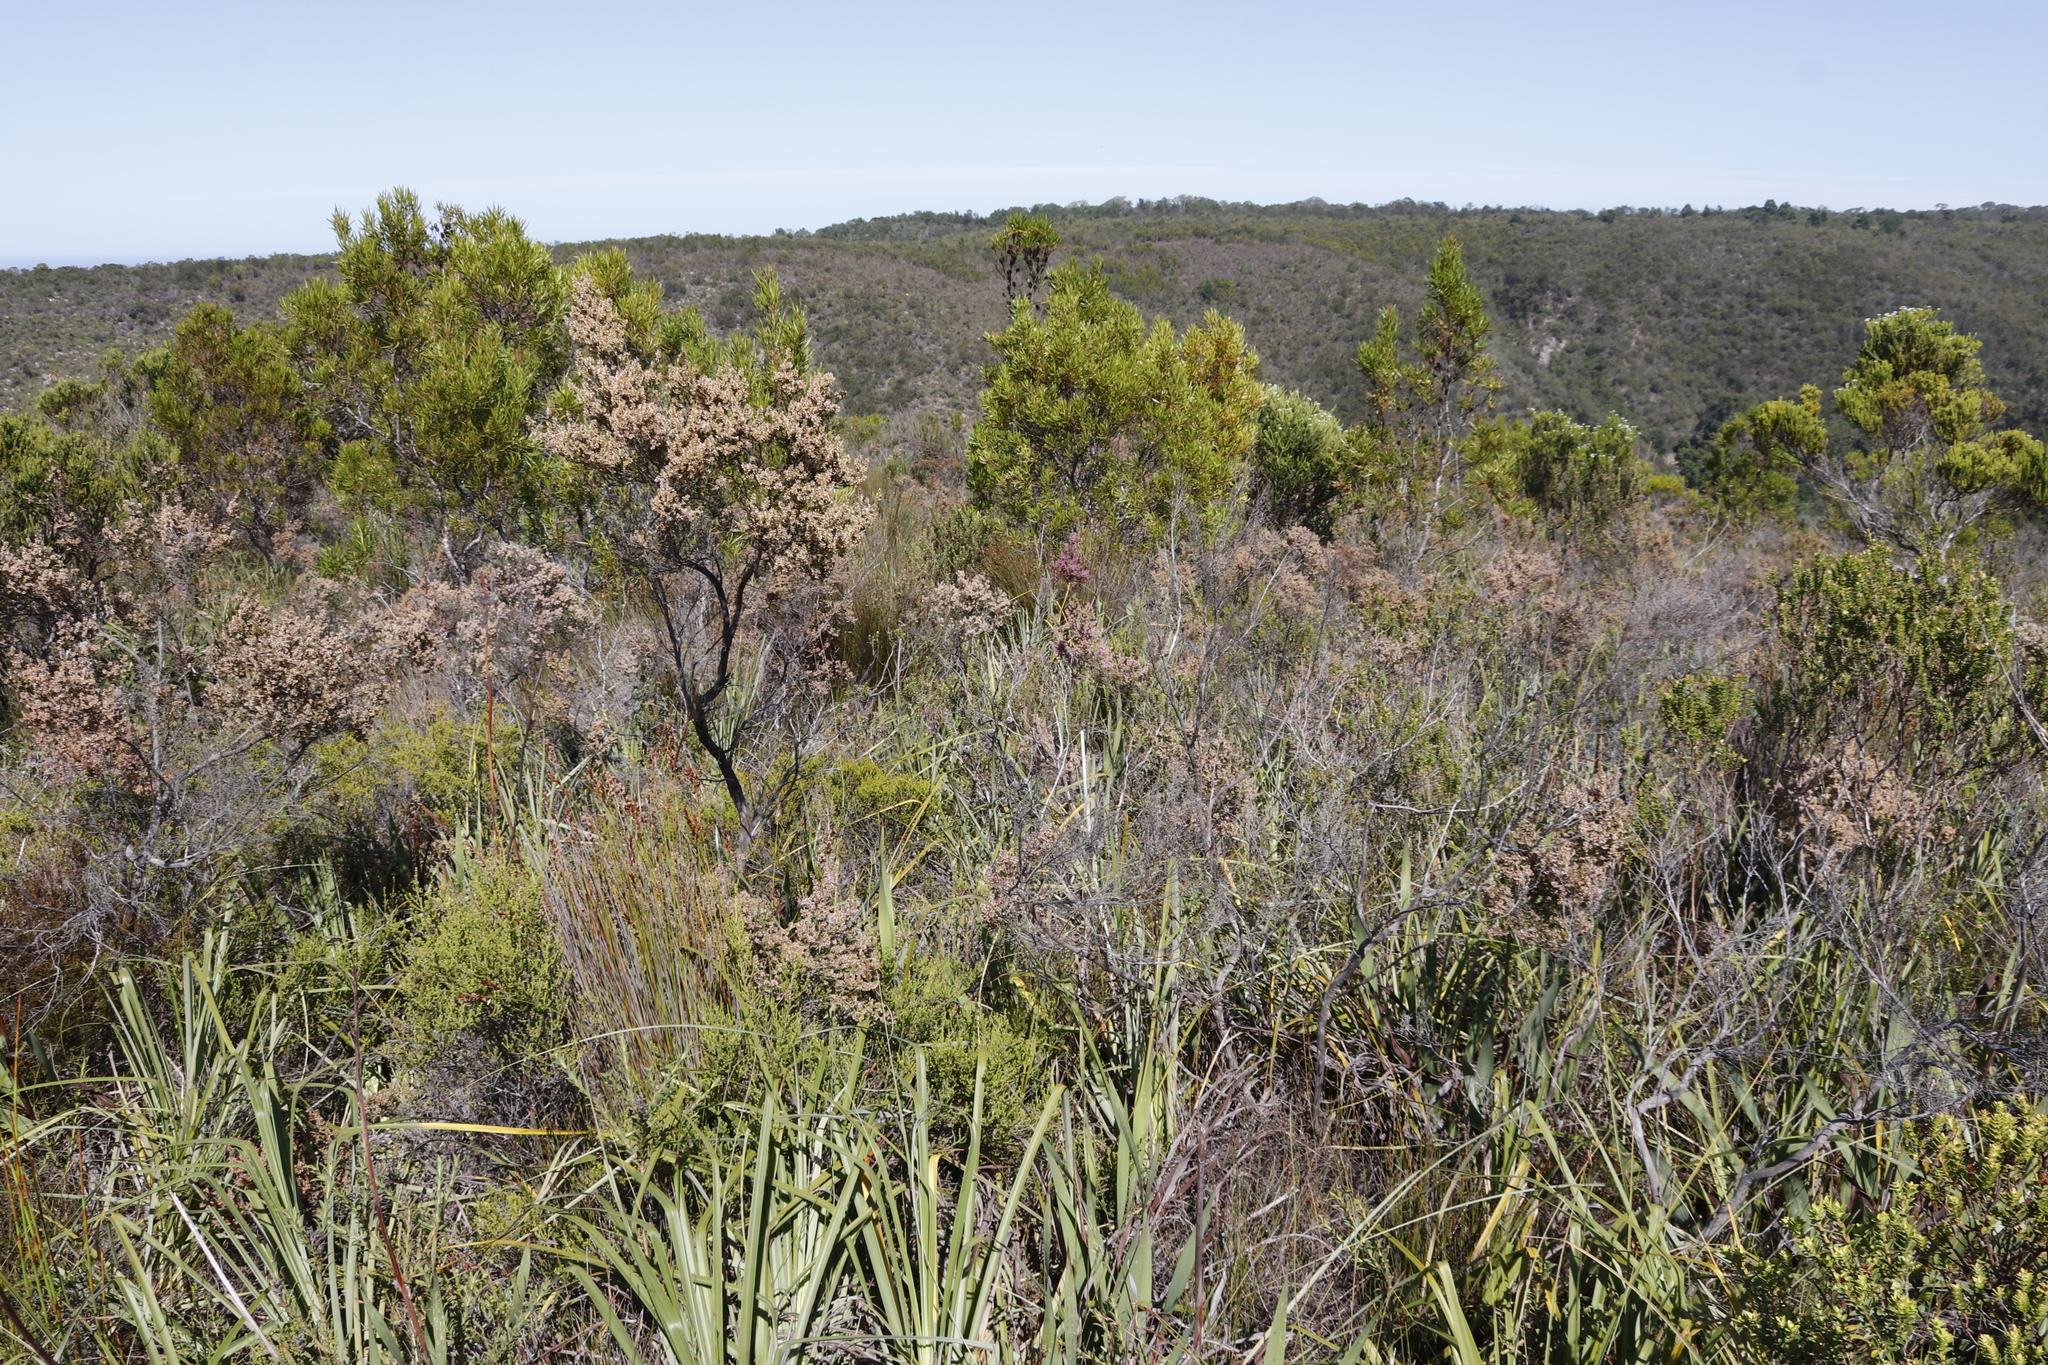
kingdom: Plantae
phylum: Tracheophyta
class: Magnoliopsida
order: Ericales
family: Ericaceae
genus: Erica
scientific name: Erica scabriuscula
